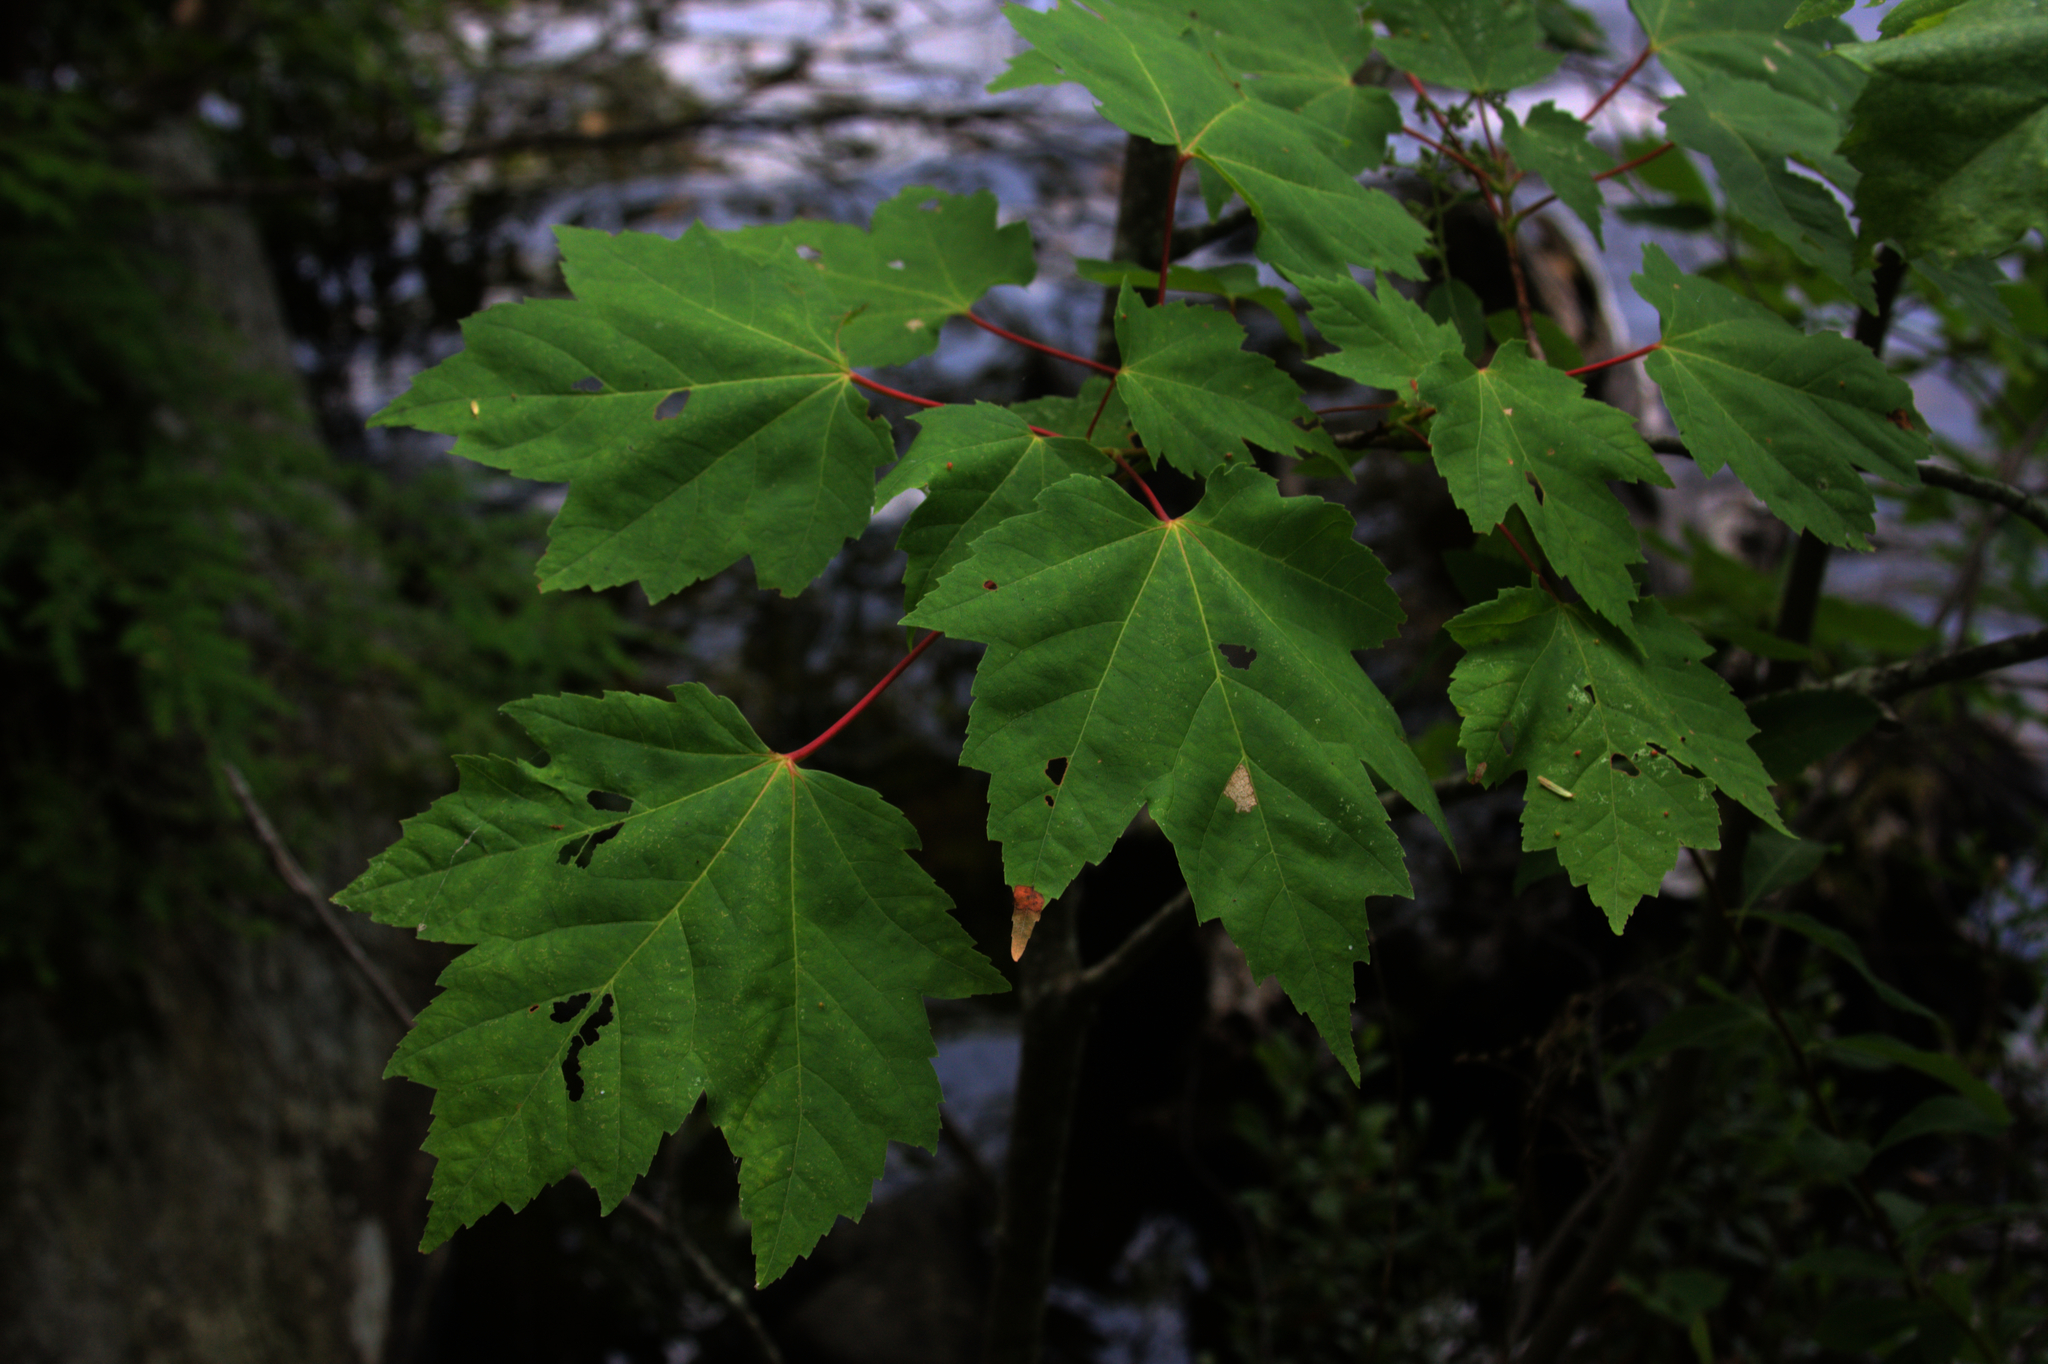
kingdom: Plantae
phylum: Tracheophyta
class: Magnoliopsida
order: Sapindales
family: Sapindaceae
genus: Acer
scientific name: Acer rubrum
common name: Red maple
